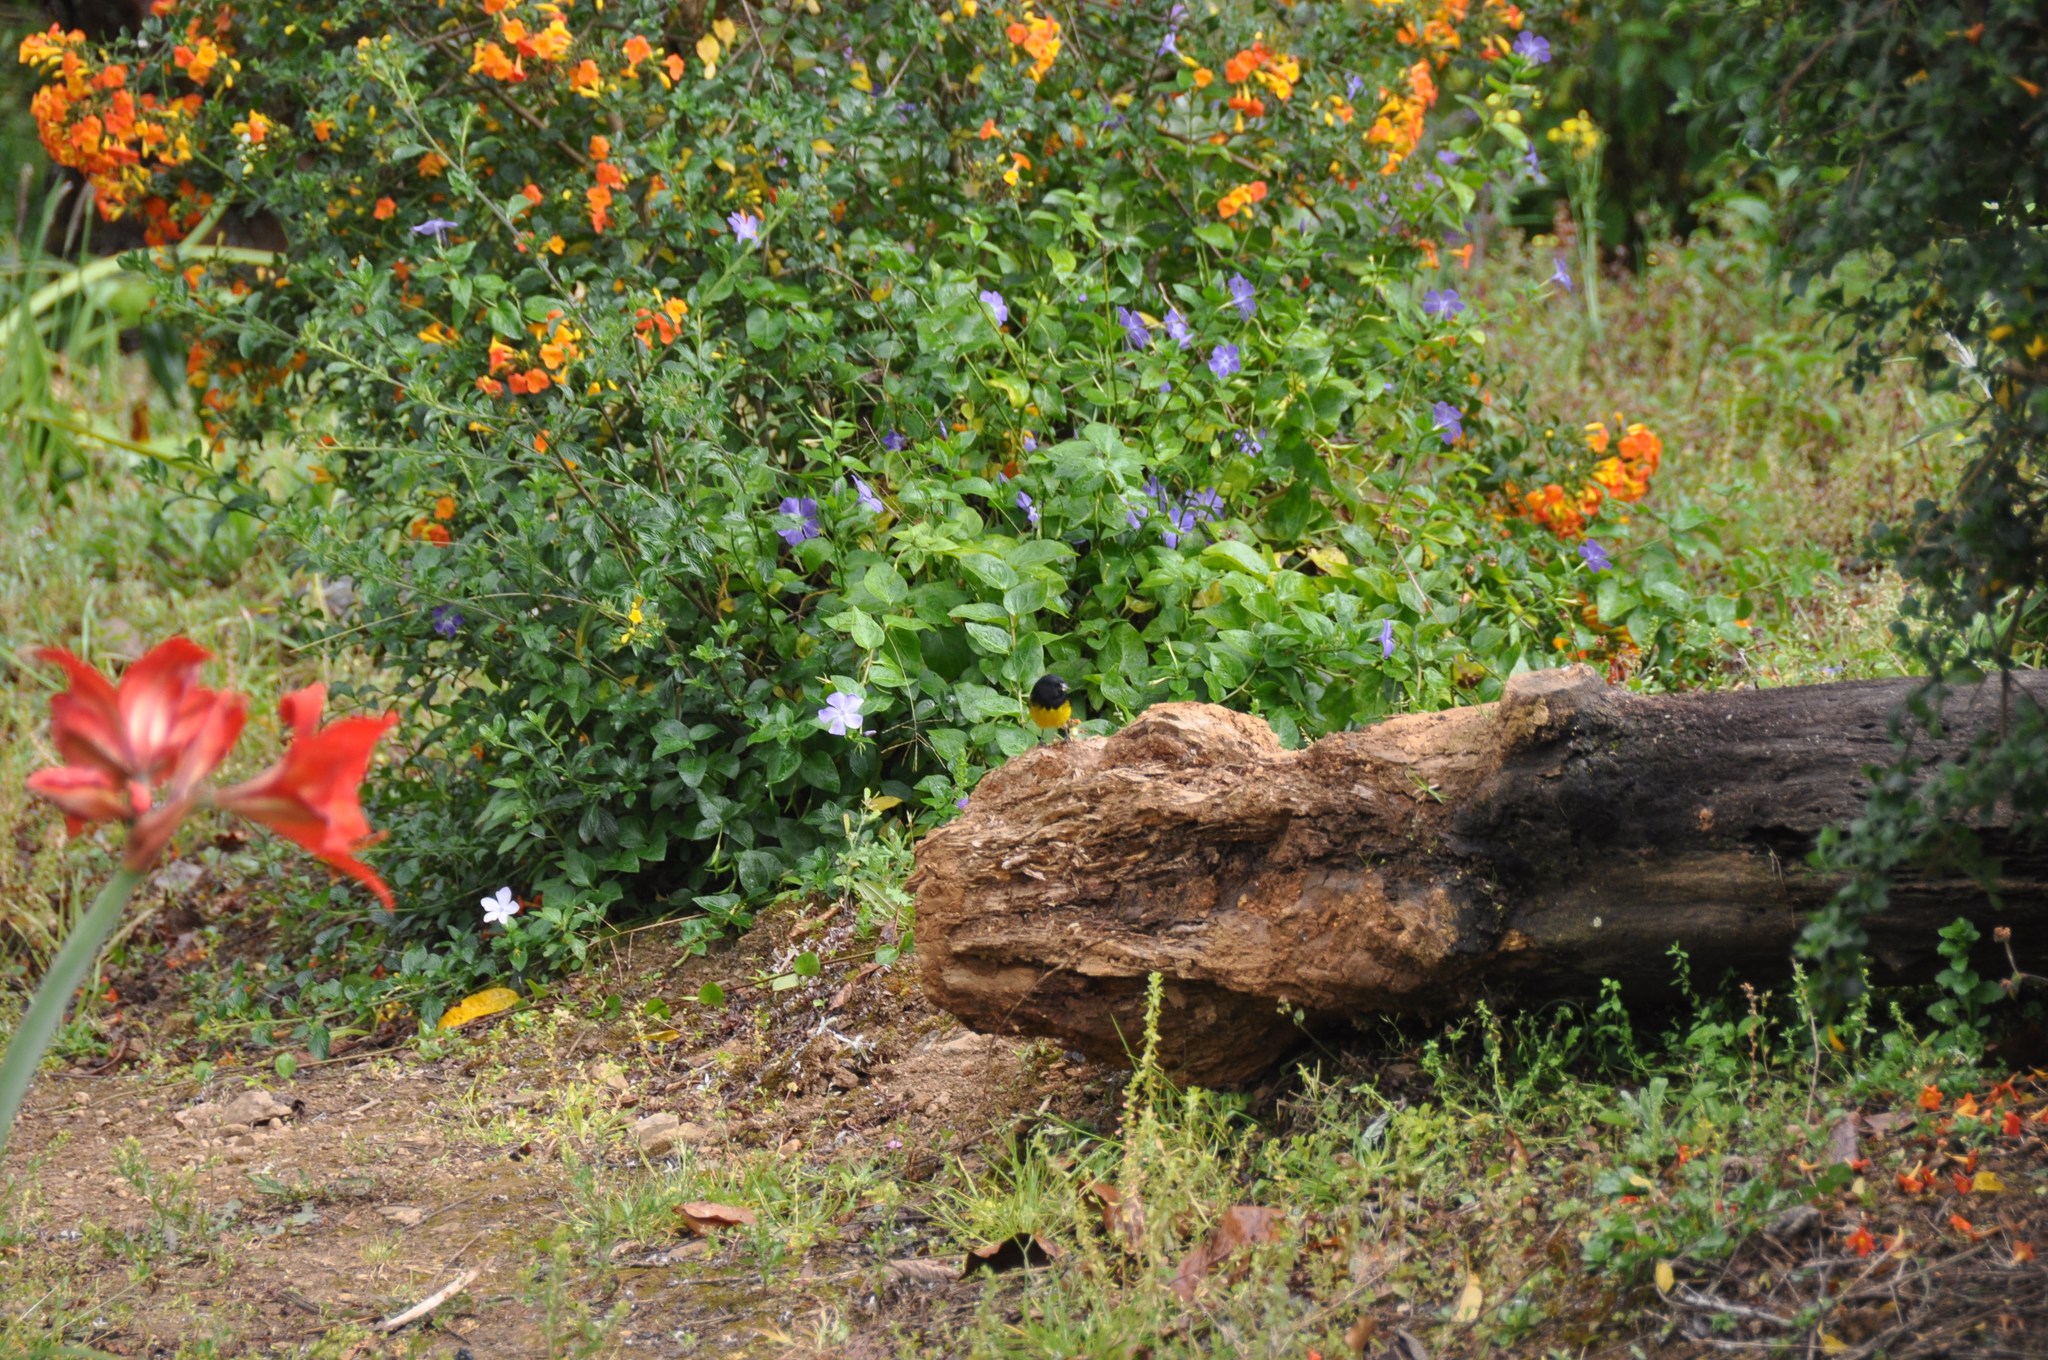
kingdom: Animalia
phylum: Chordata
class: Aves
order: Passeriformes
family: Fringillidae
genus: Spinus
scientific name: Spinus xanthogastrus
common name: Yellow-bellied siskin
